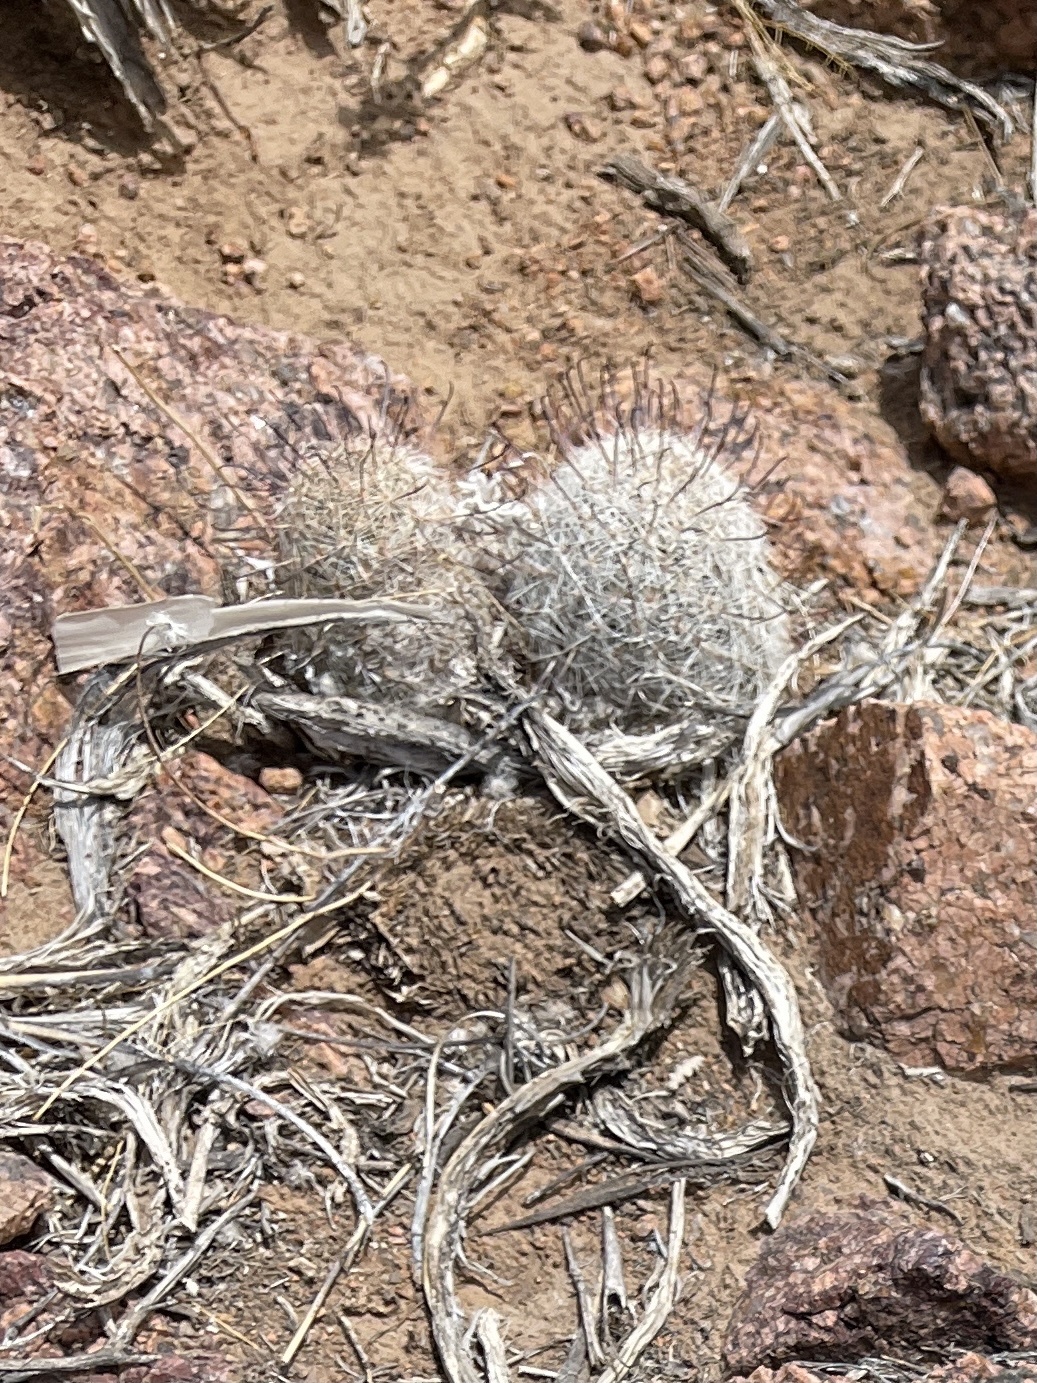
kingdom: Plantae
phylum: Tracheophyta
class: Magnoliopsida
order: Caryophyllales
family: Cactaceae
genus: Cochemiea
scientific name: Cochemiea grahamii
